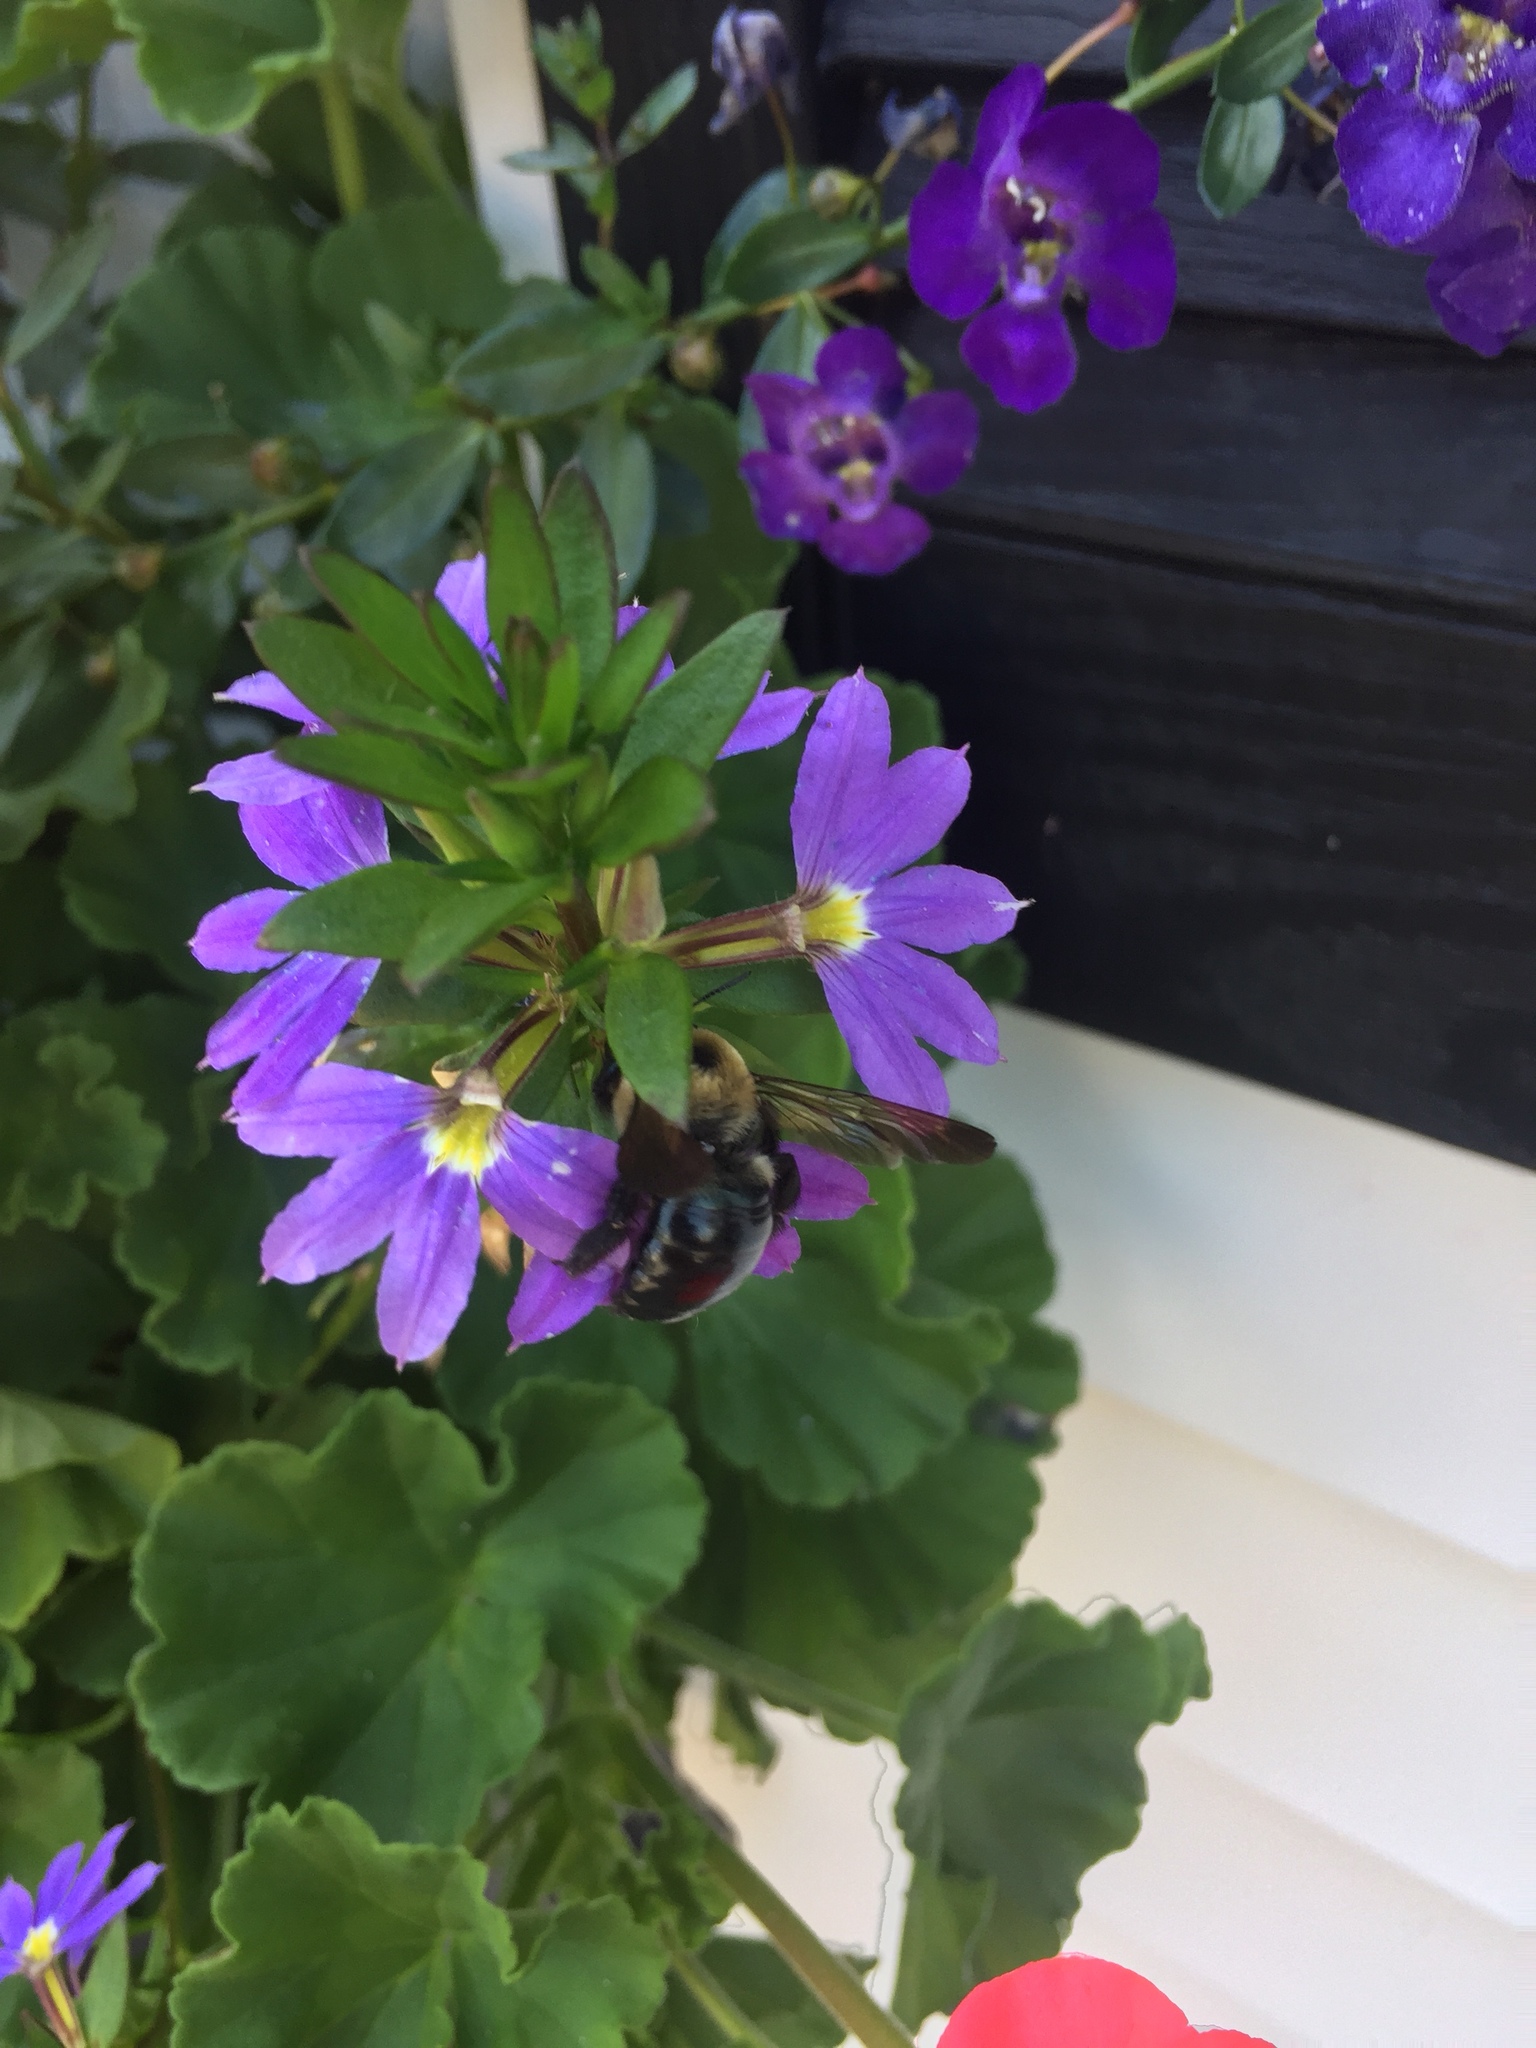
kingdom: Animalia
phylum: Arthropoda
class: Insecta
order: Hymenoptera
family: Apidae
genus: Xylocopa
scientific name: Xylocopa virginica
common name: Carpenter bee
